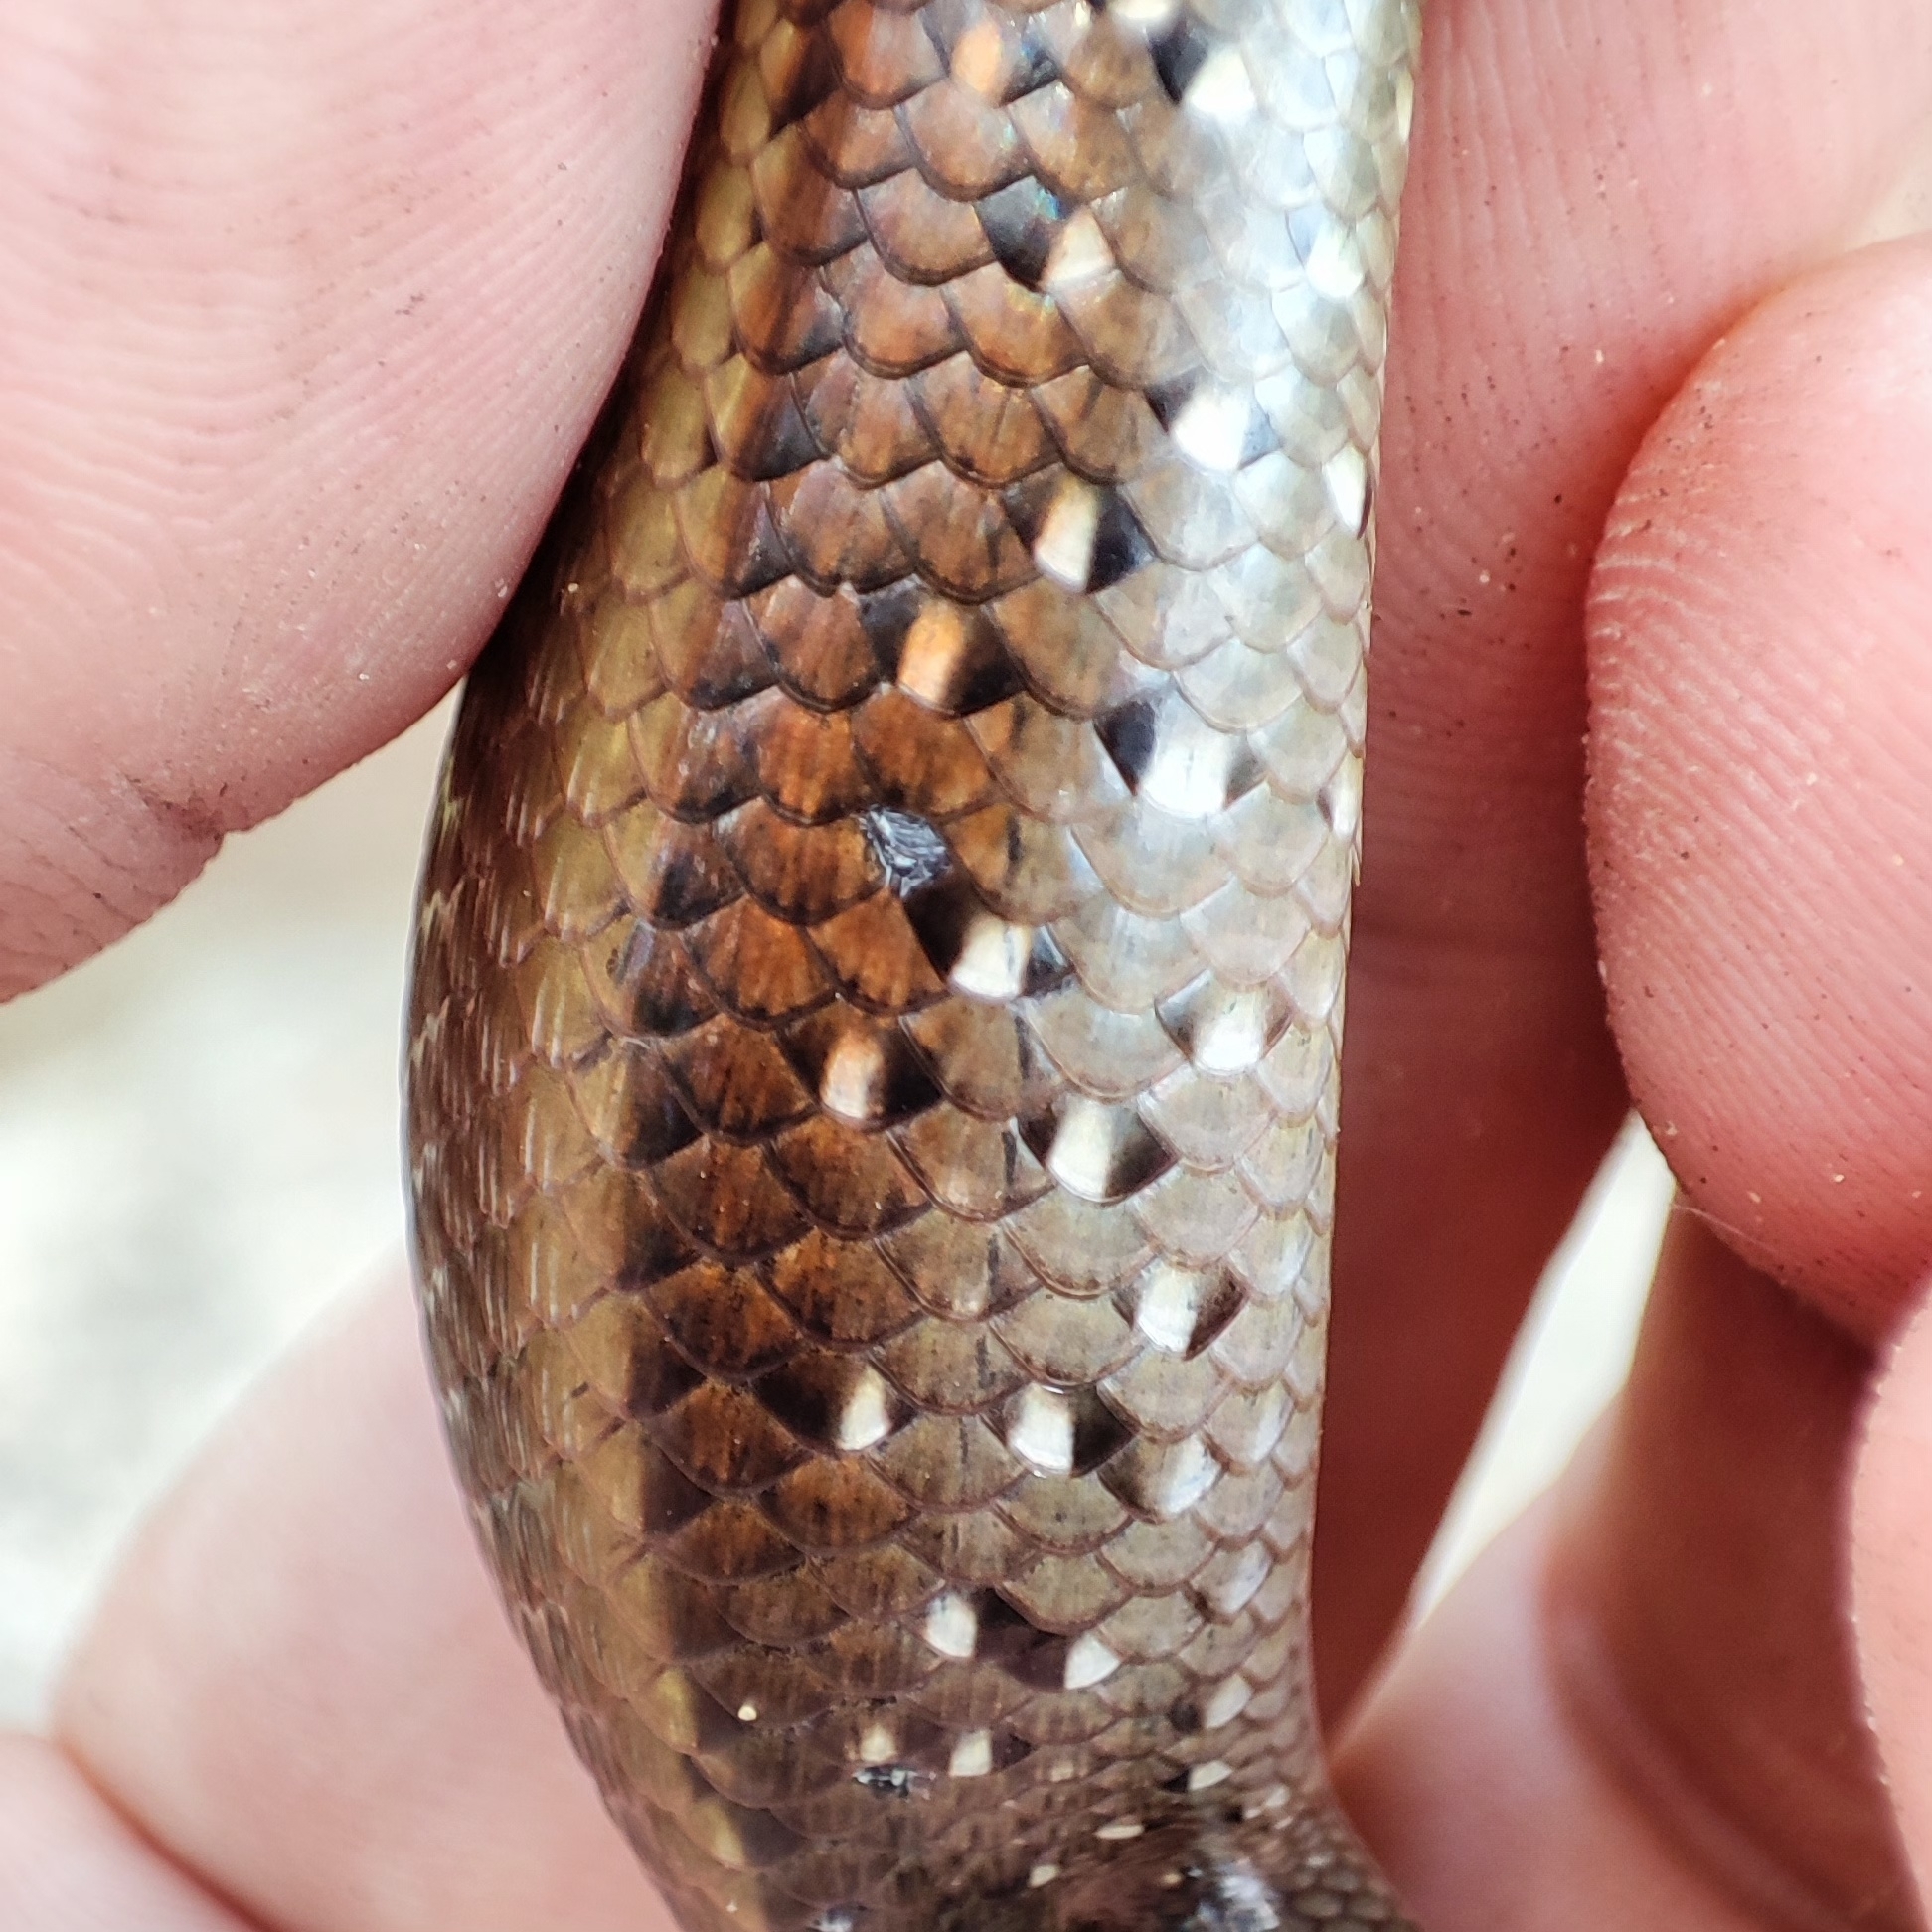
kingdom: Animalia
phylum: Chordata
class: Squamata
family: Scincidae
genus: Eutropis
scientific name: Eutropis multifasciata
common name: Common mabuya
